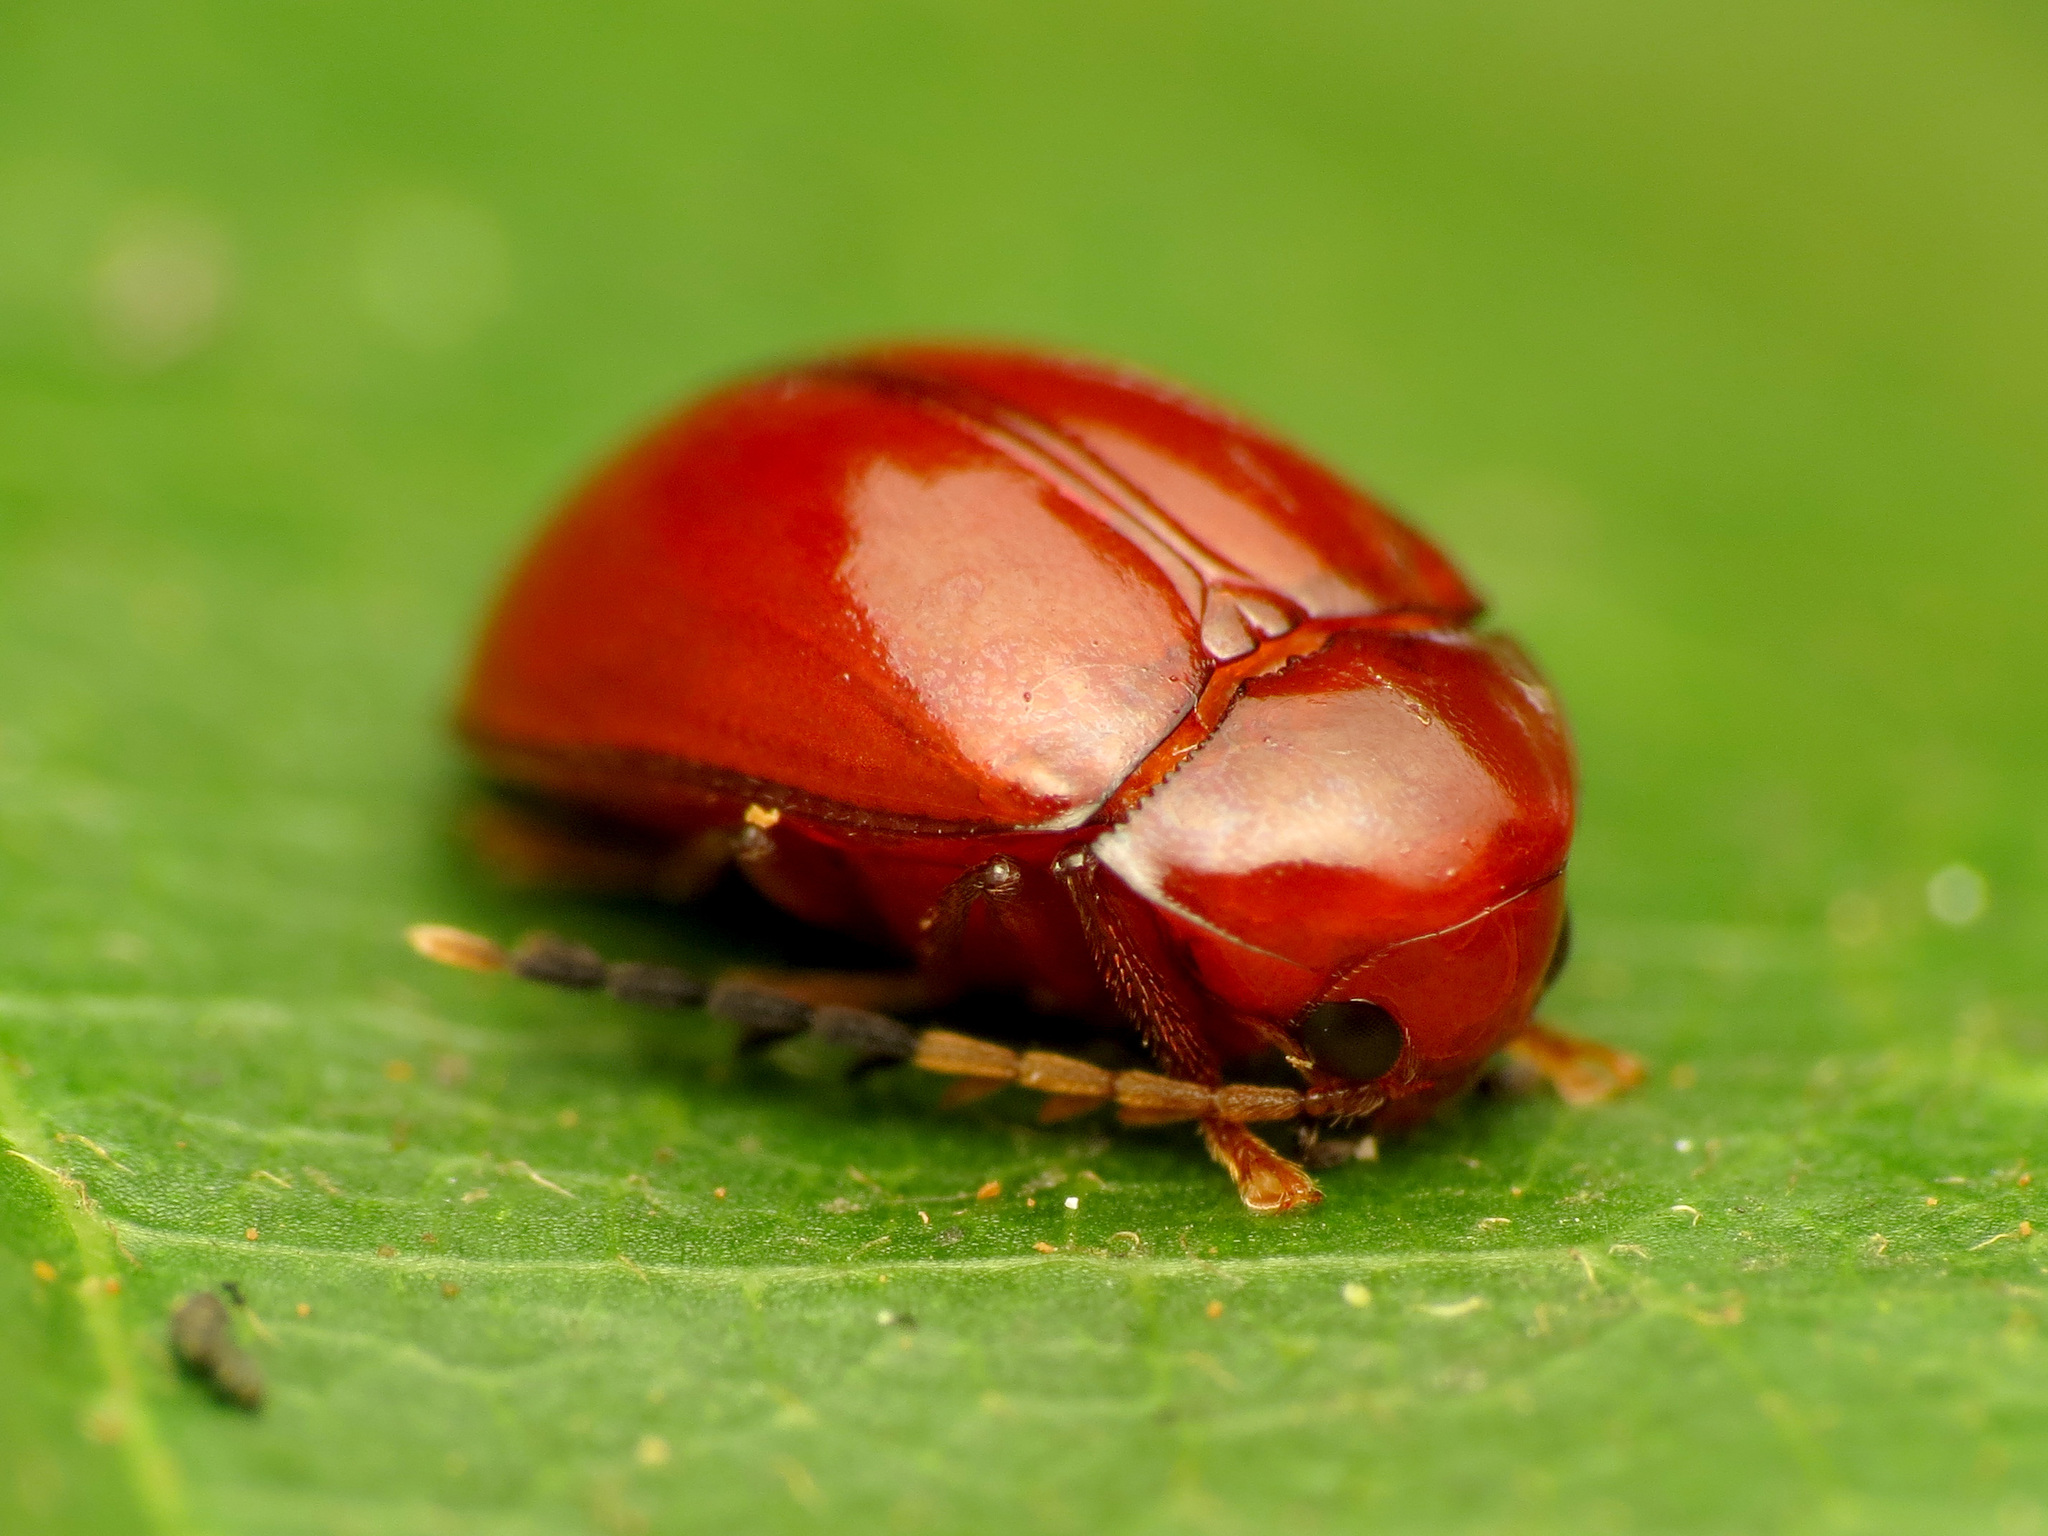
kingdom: Animalia
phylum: Arthropoda
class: Insecta
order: Coleoptera
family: Ptilodactylidae
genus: Ptilodactyla
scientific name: Ptilodactyla
